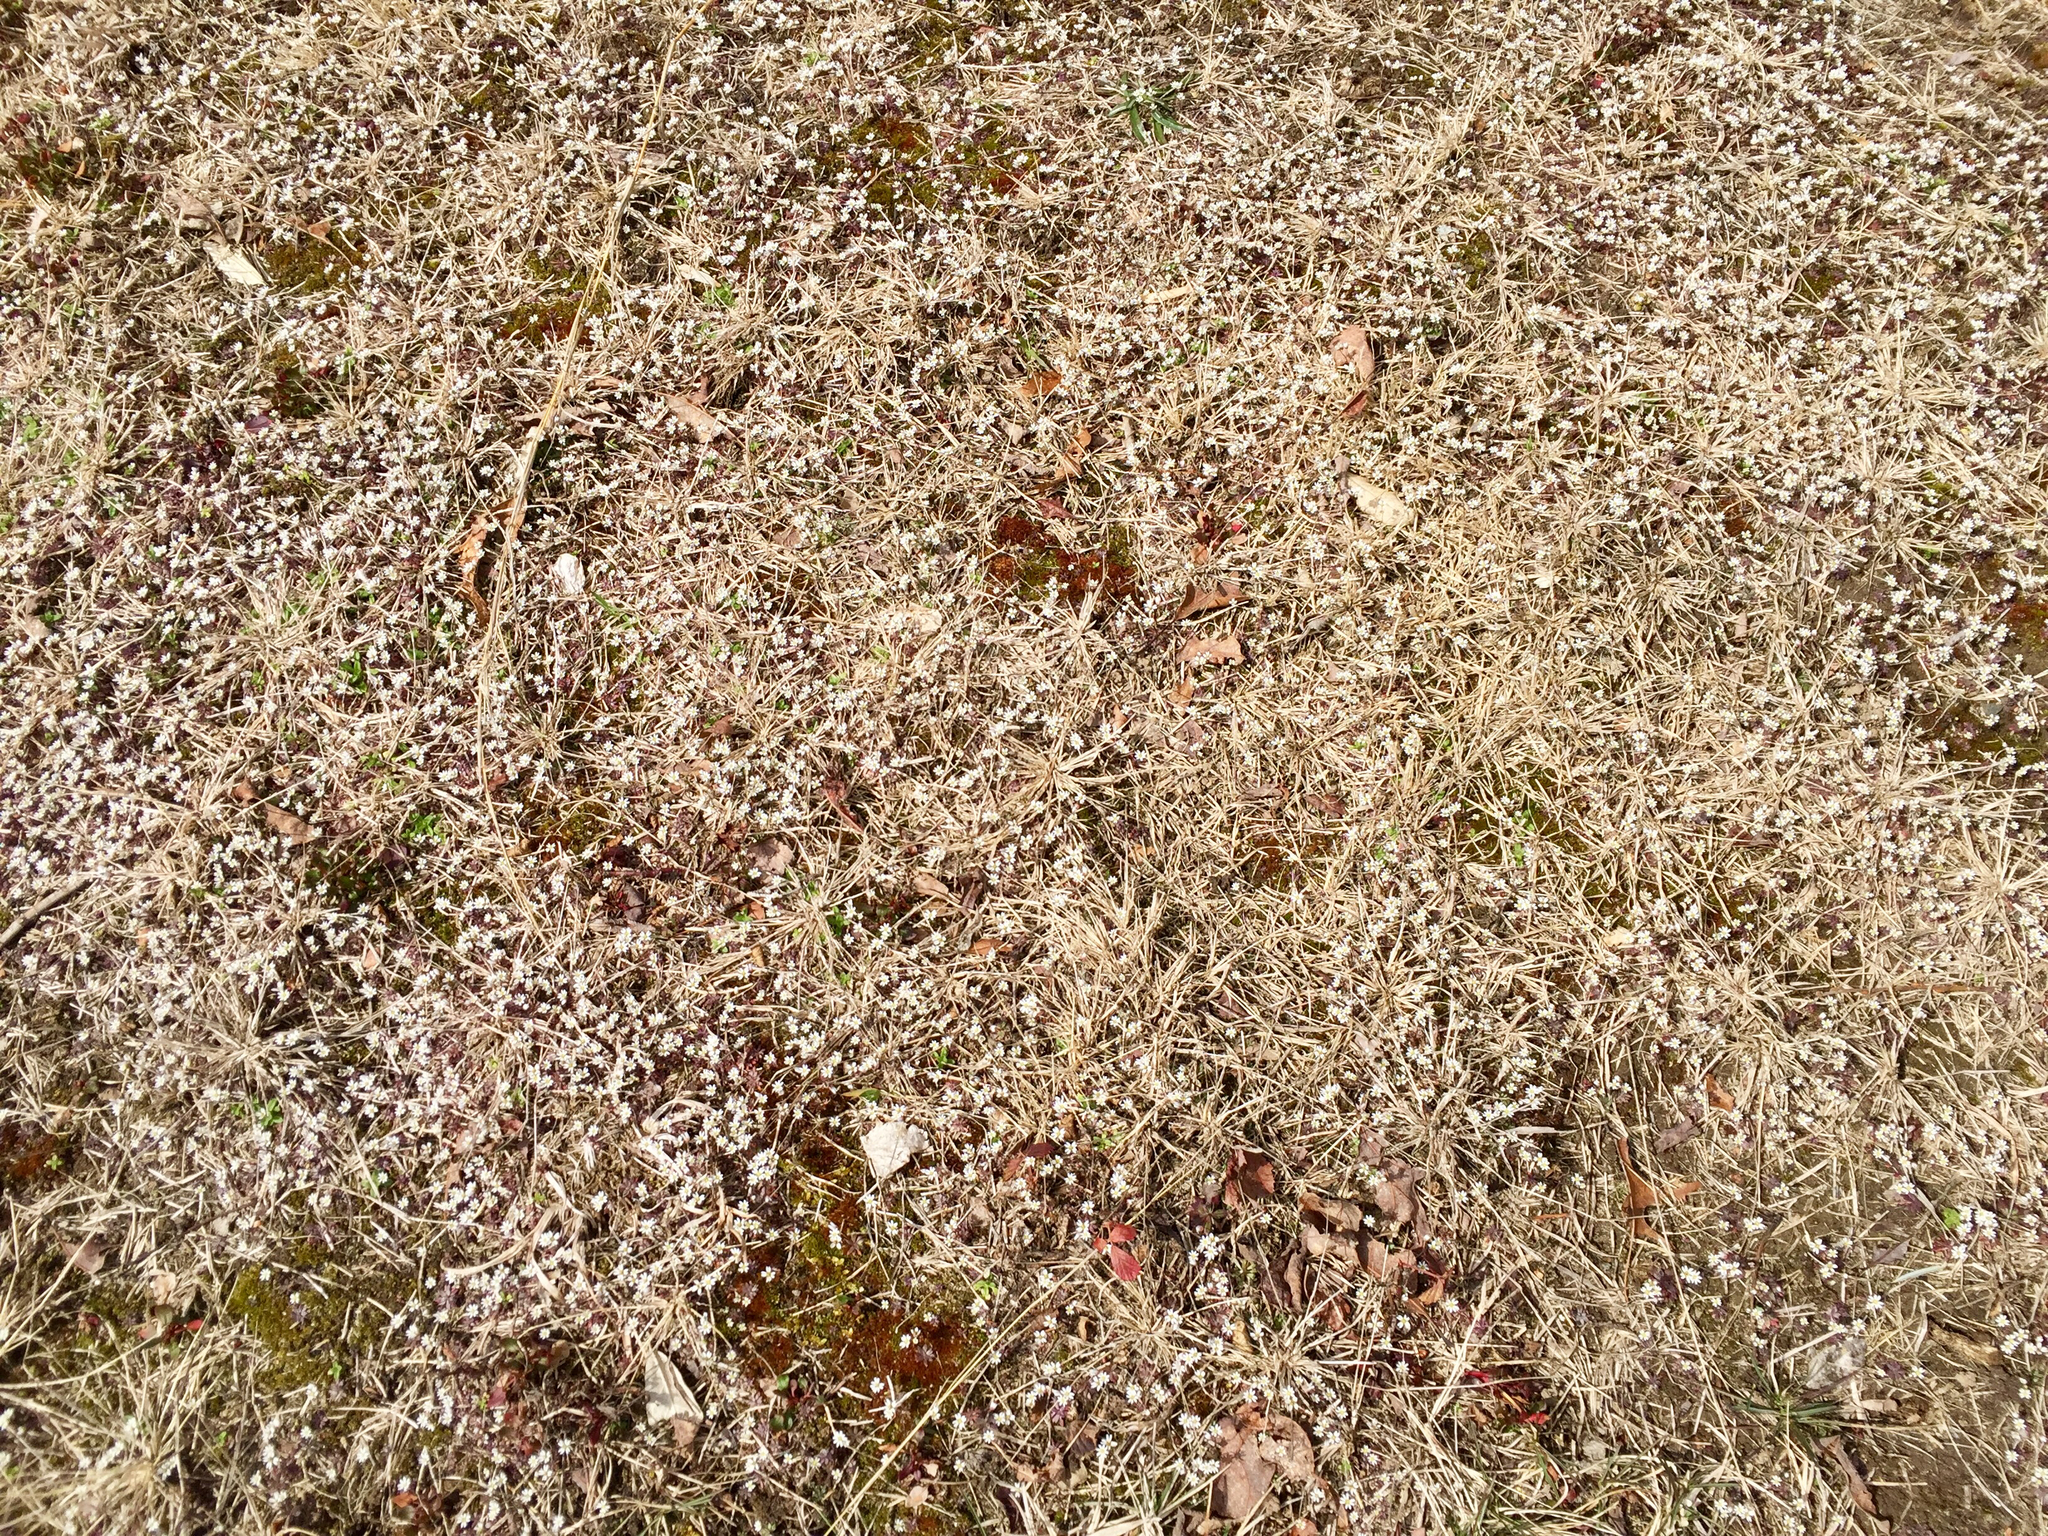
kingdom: Plantae
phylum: Tracheophyta
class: Magnoliopsida
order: Brassicales
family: Brassicaceae
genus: Draba
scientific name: Draba verna
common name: Spring draba
